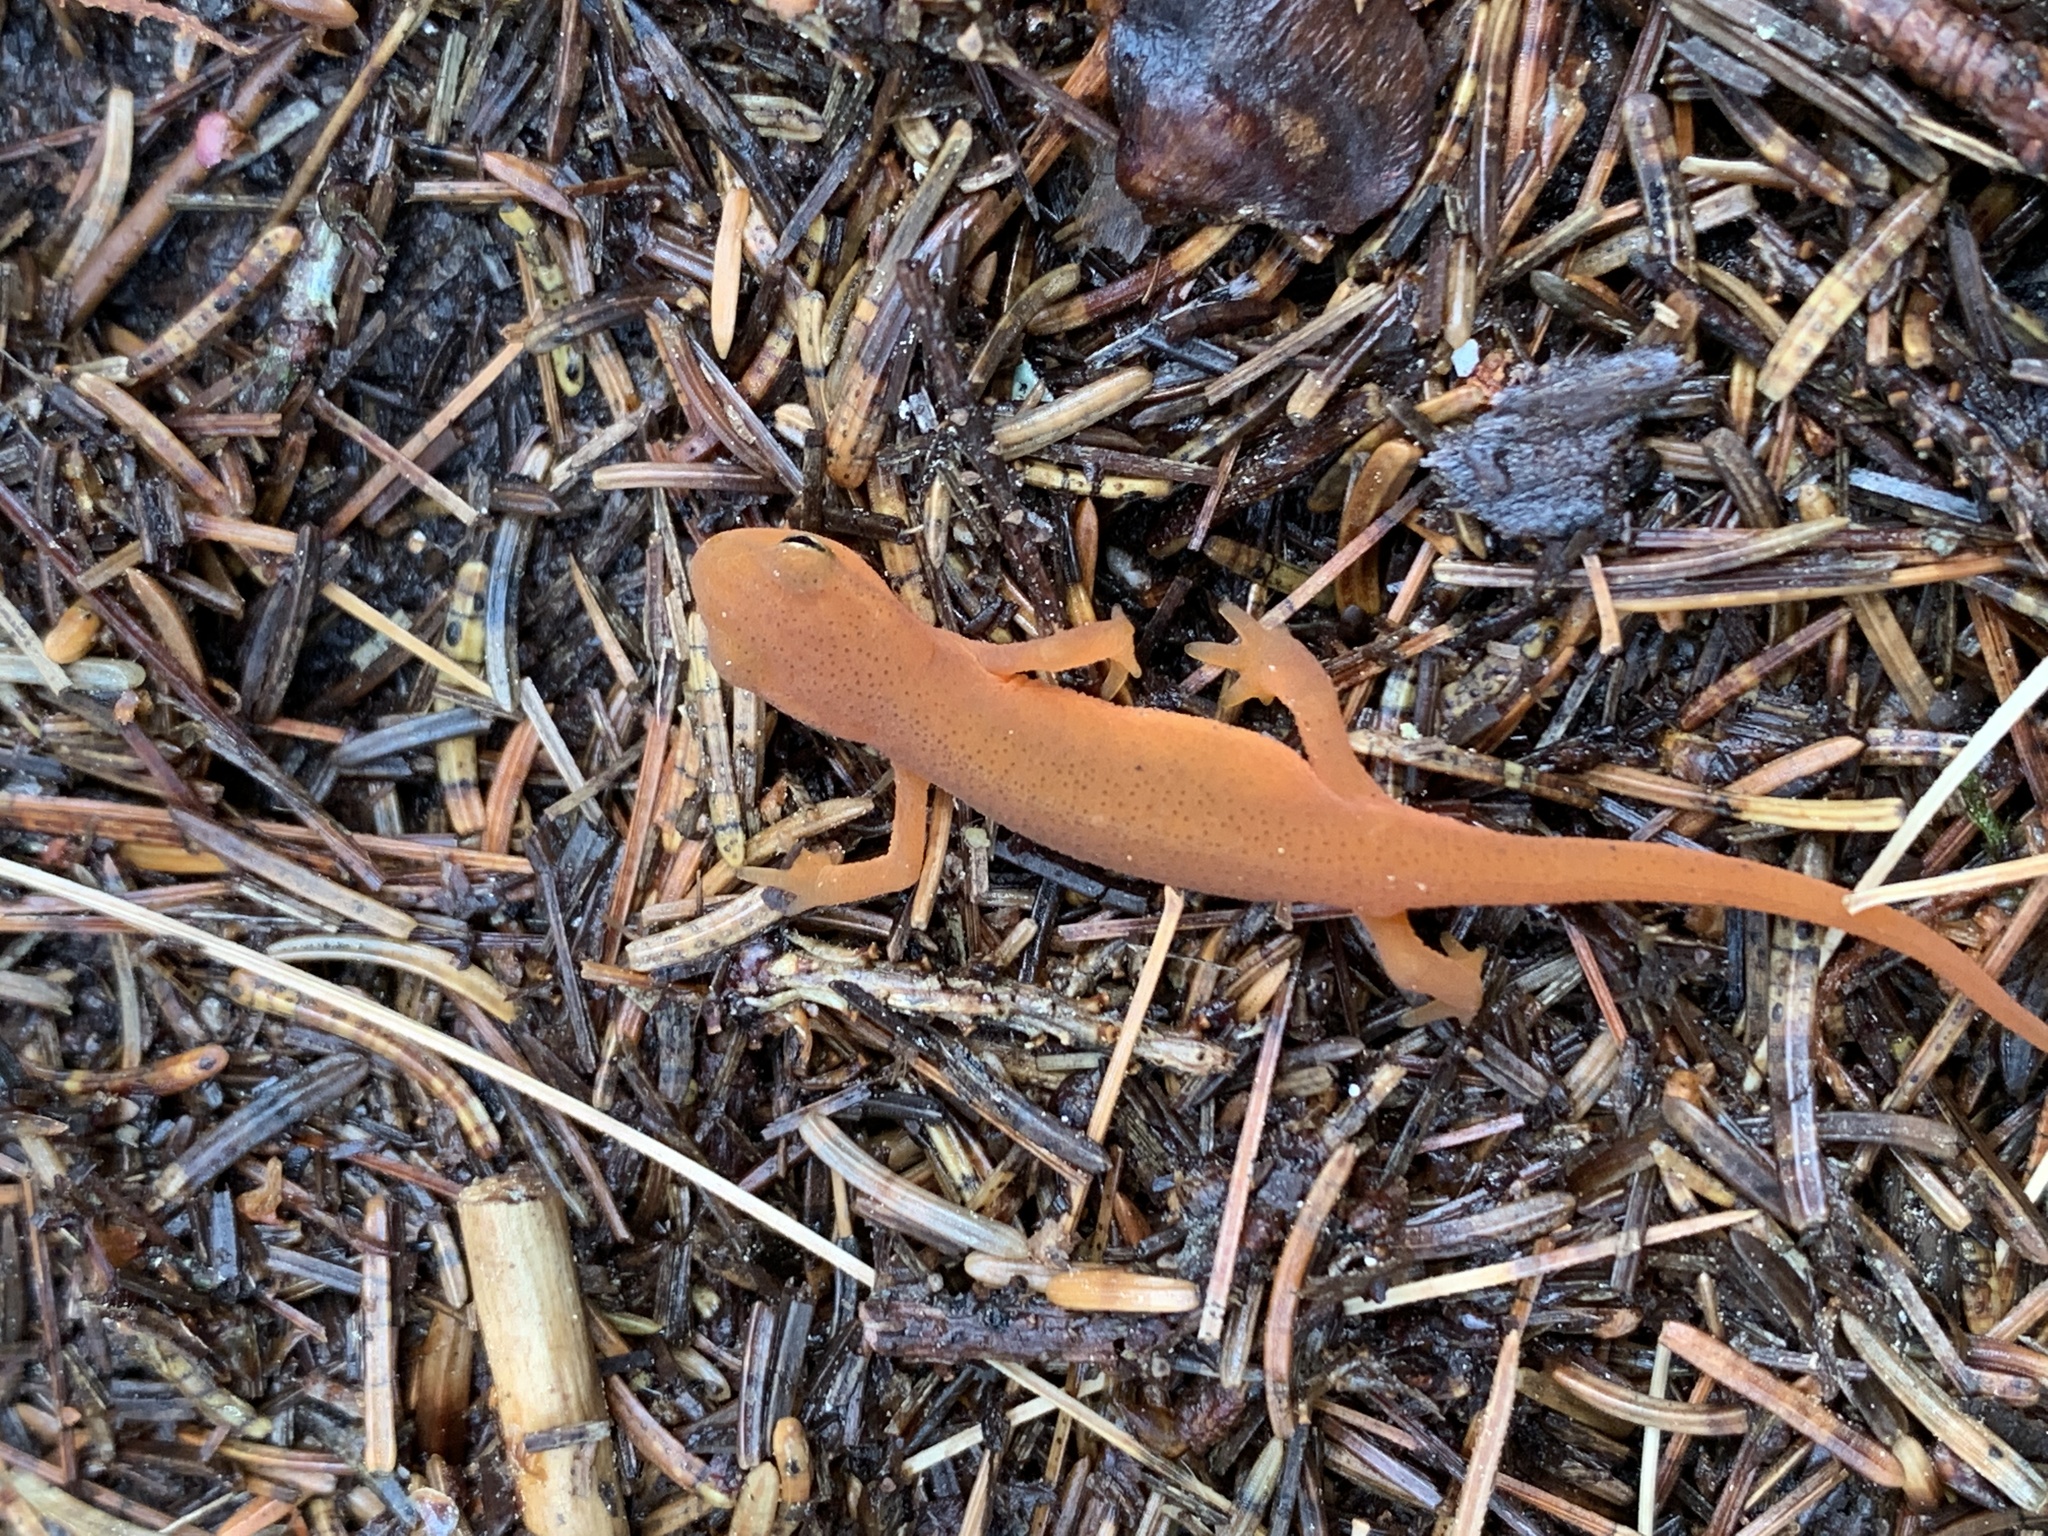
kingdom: Animalia
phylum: Chordata
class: Amphibia
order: Caudata
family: Salamandridae
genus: Notophthalmus
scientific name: Notophthalmus viridescens
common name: Eastern newt
